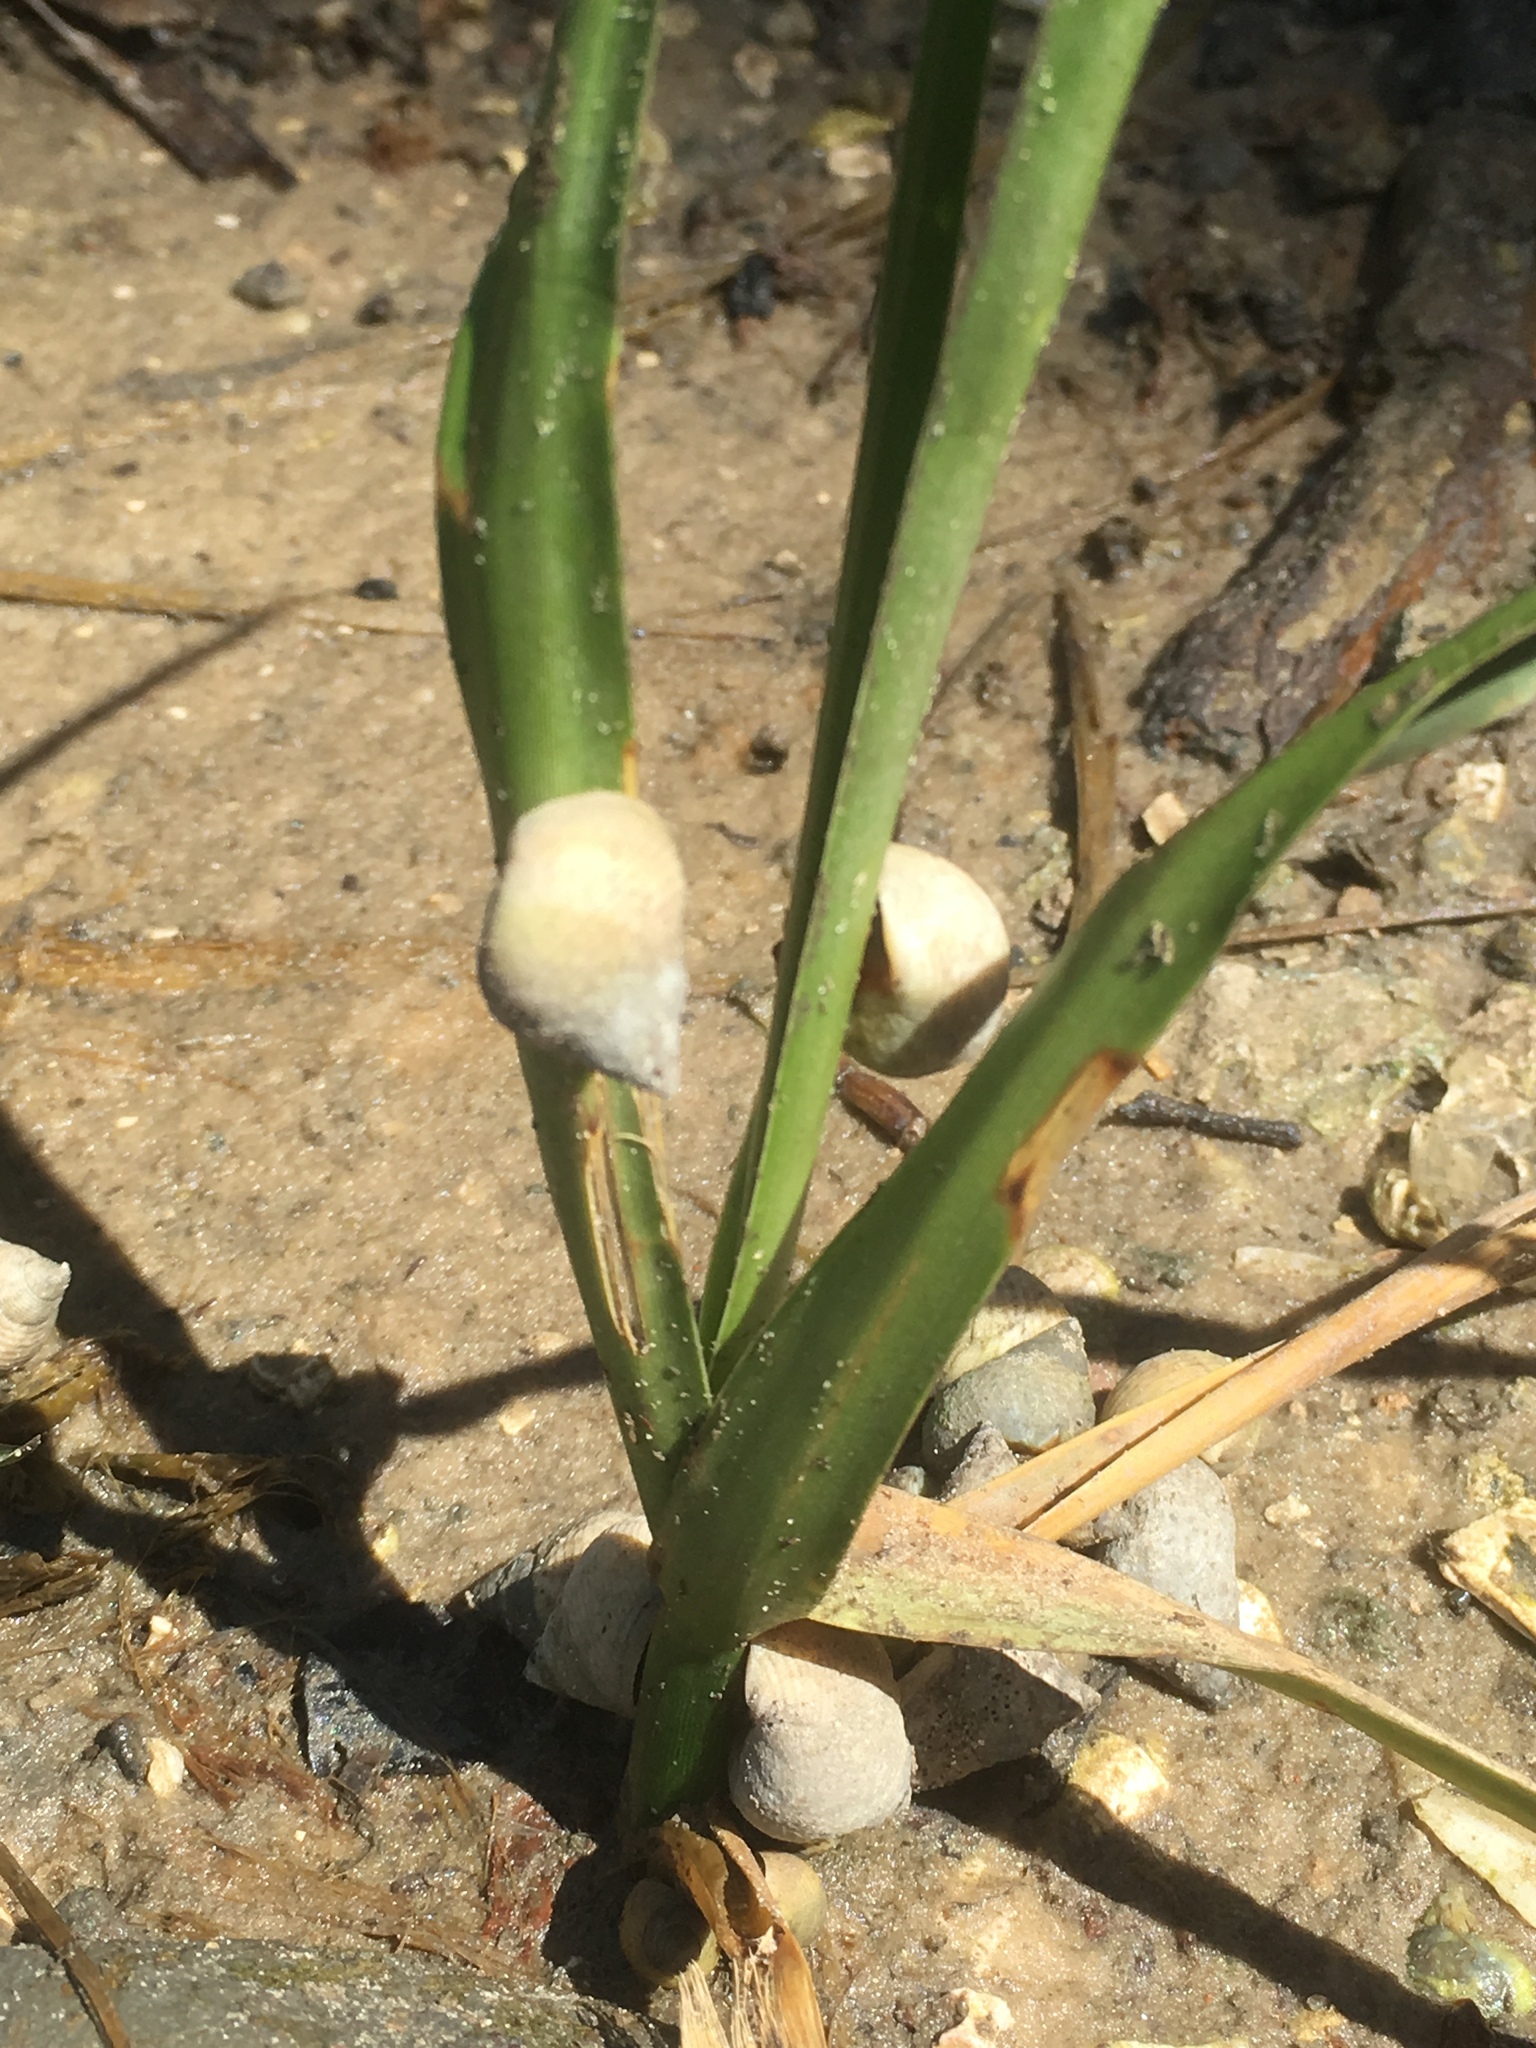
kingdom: Animalia
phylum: Mollusca
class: Gastropoda
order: Littorinimorpha
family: Littorinidae
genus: Littoraria
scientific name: Littoraria irrorata
